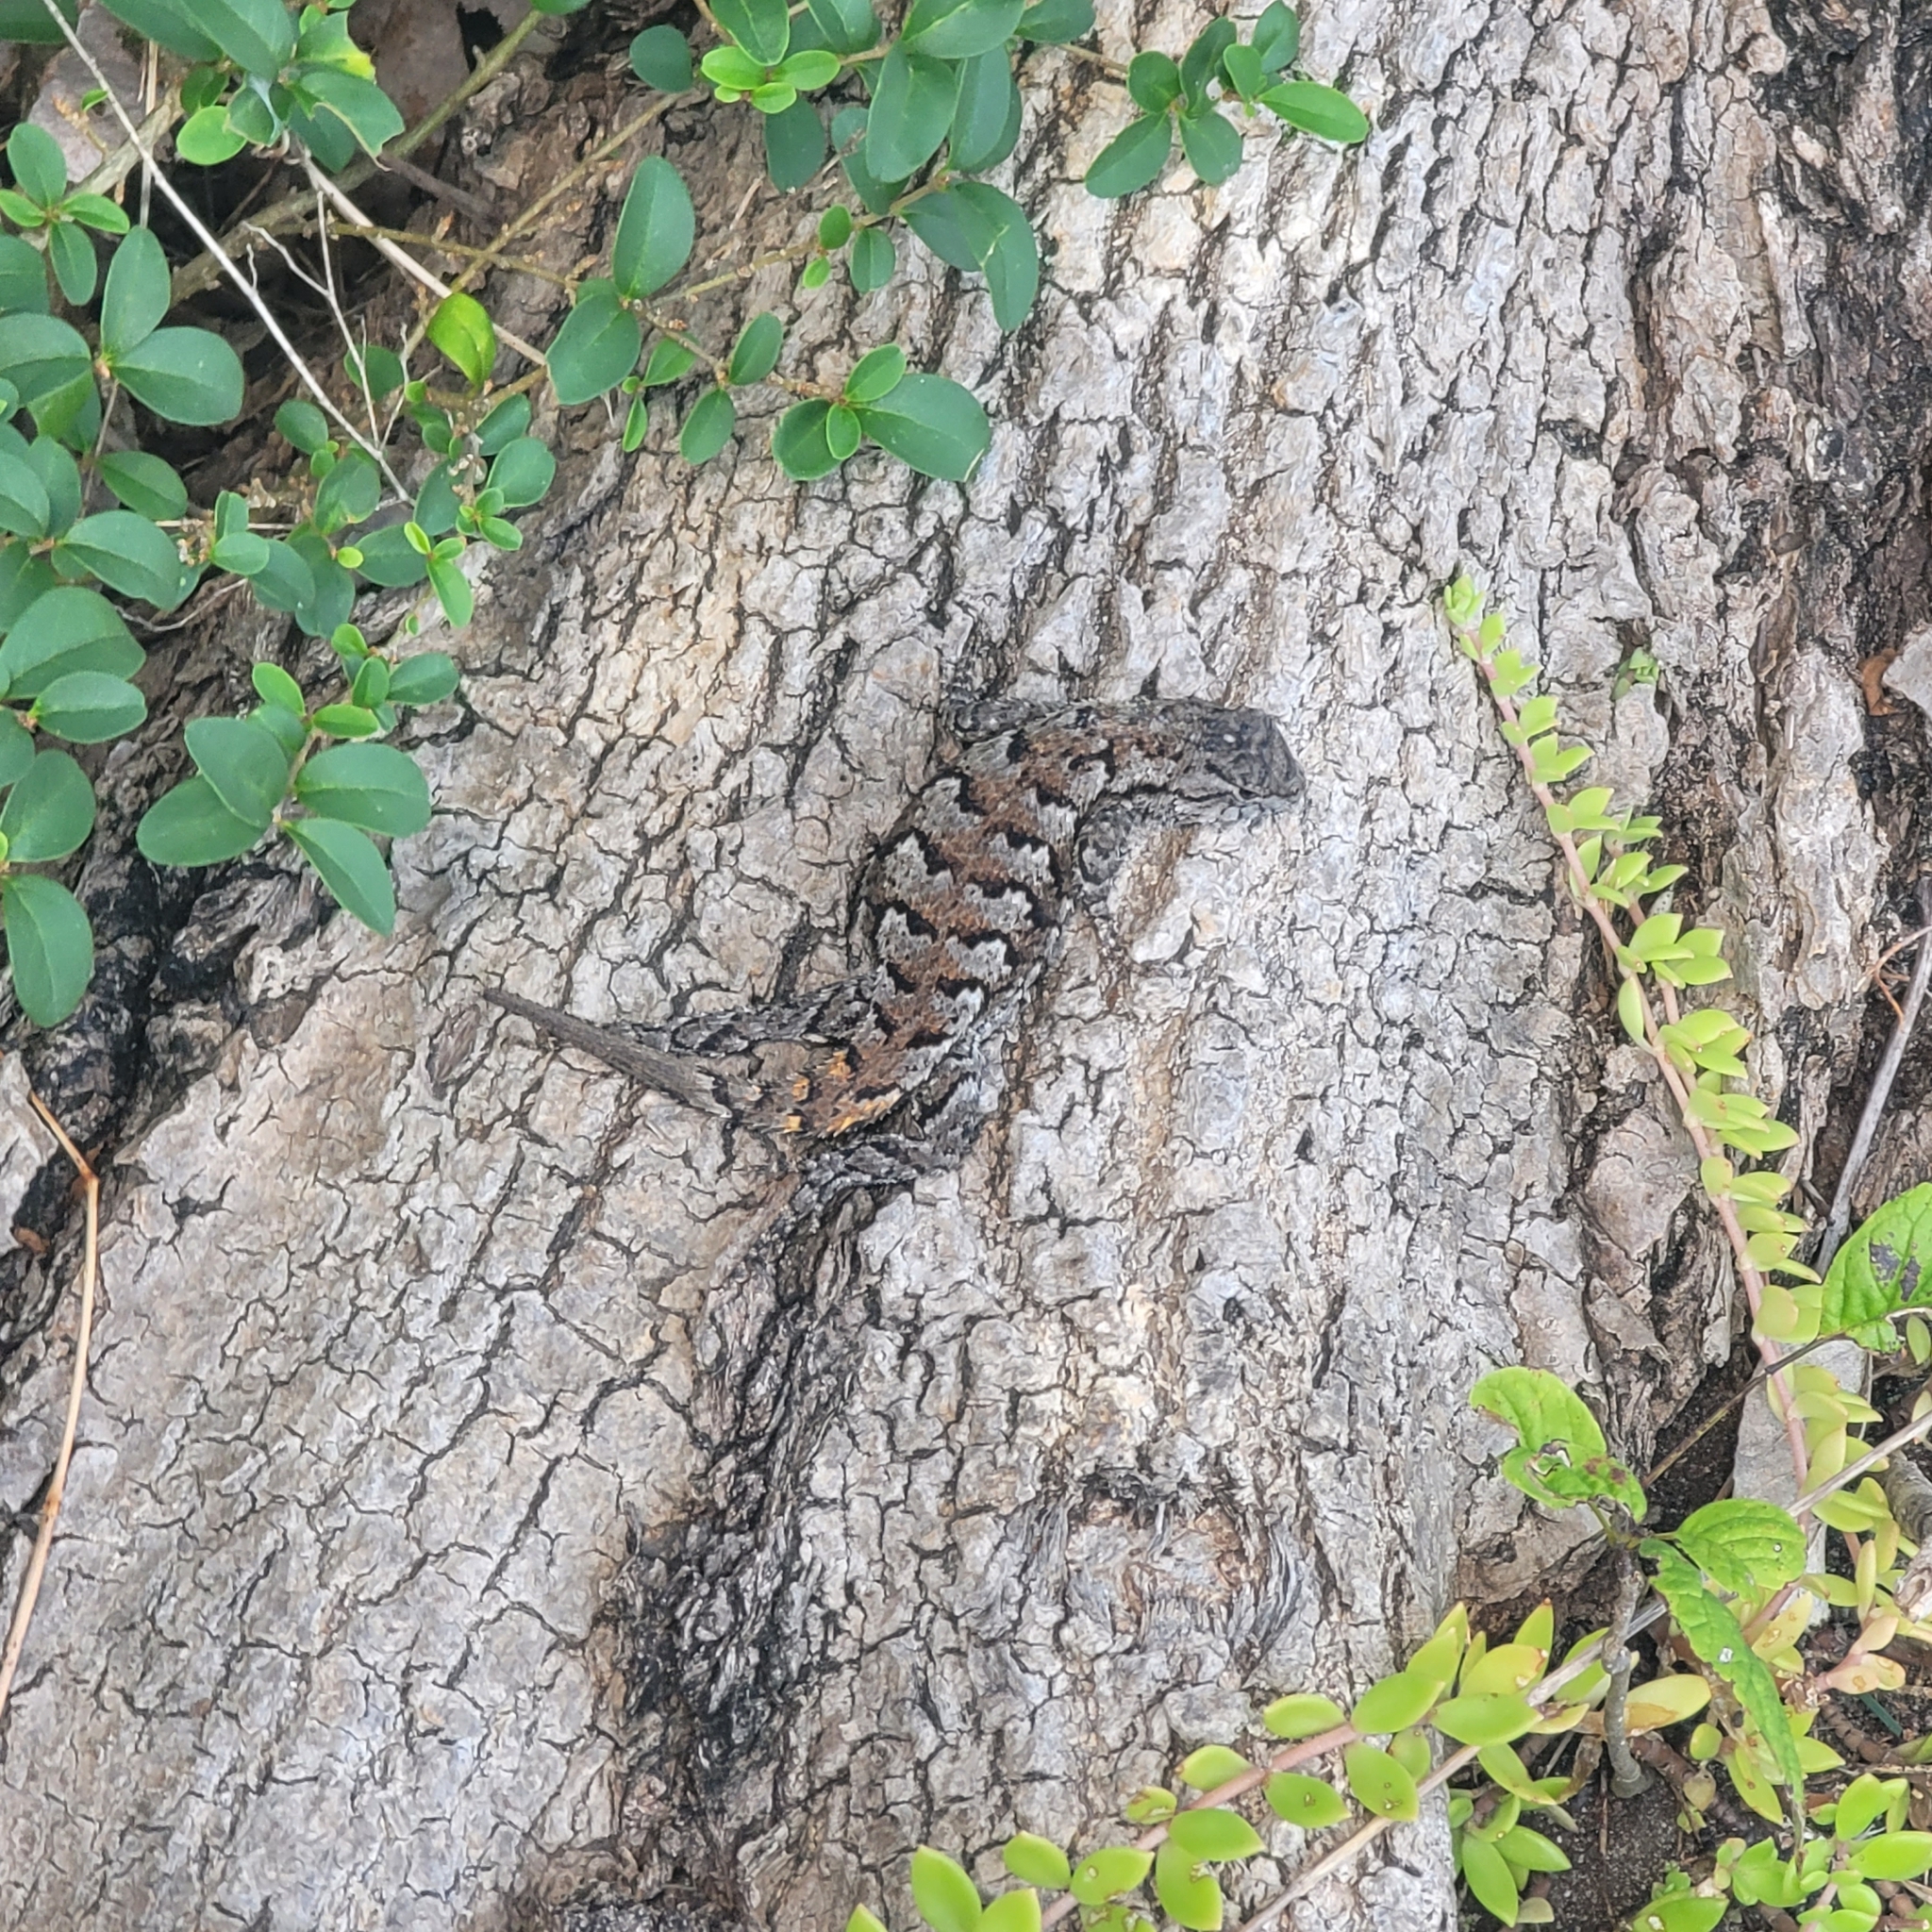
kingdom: Animalia
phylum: Chordata
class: Squamata
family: Phrynosomatidae
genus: Sceloporus
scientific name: Sceloporus undulatus
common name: Eastern fence lizard
